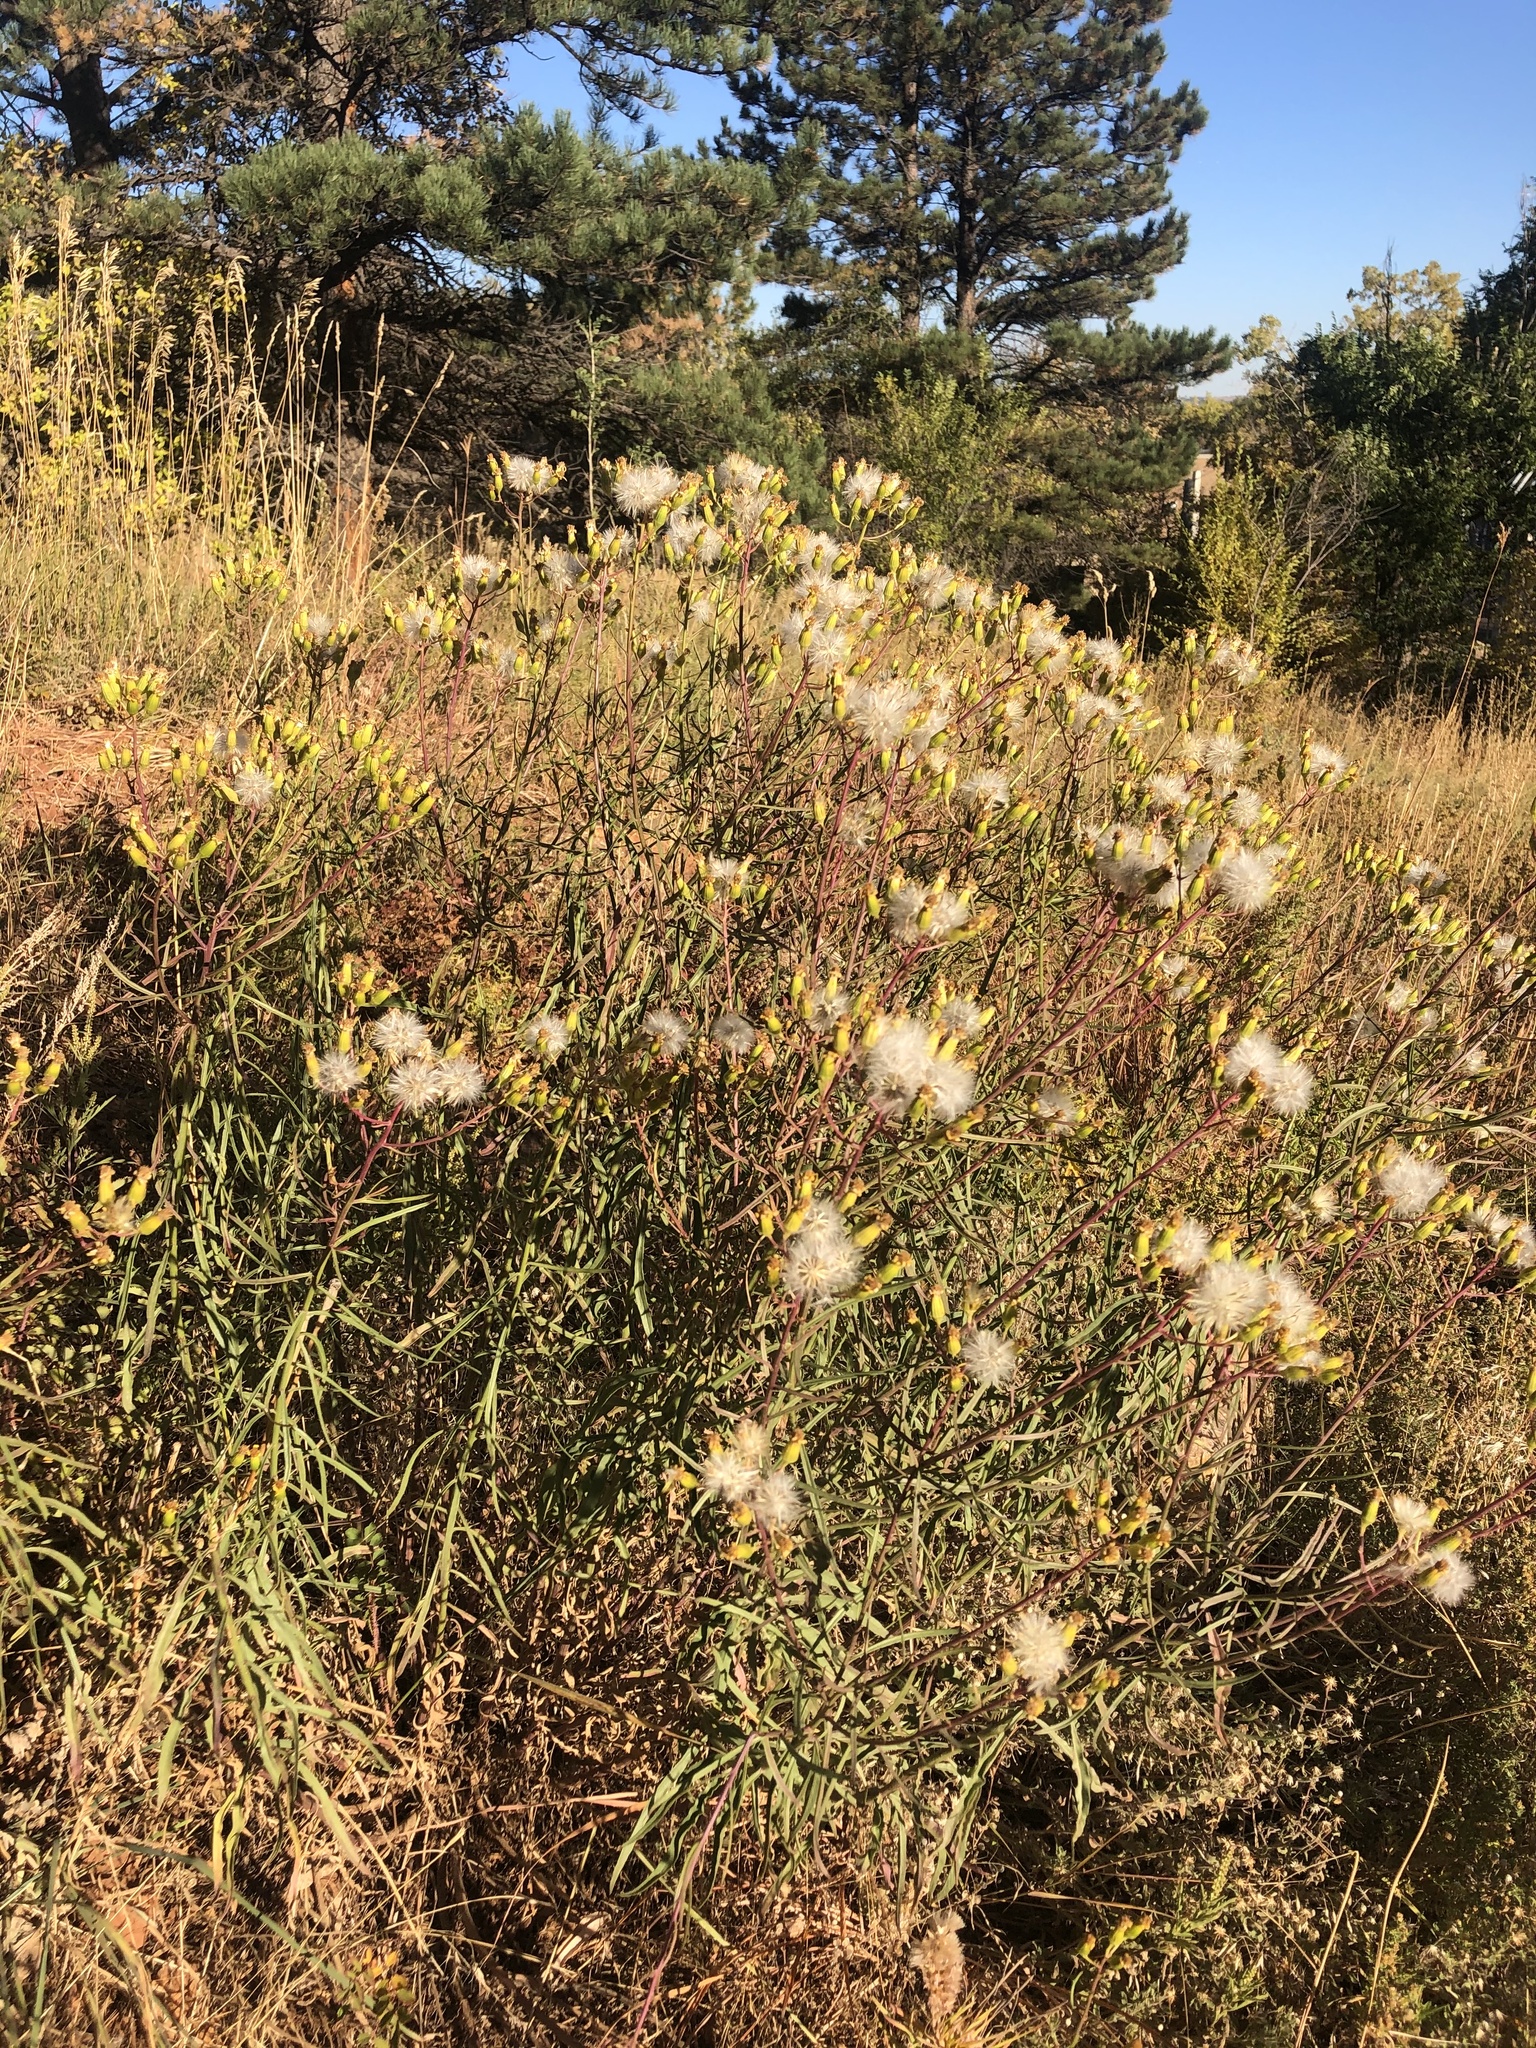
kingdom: Plantae
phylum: Tracheophyta
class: Magnoliopsida
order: Asterales
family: Asteraceae
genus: Senecio
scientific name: Senecio spartioides
